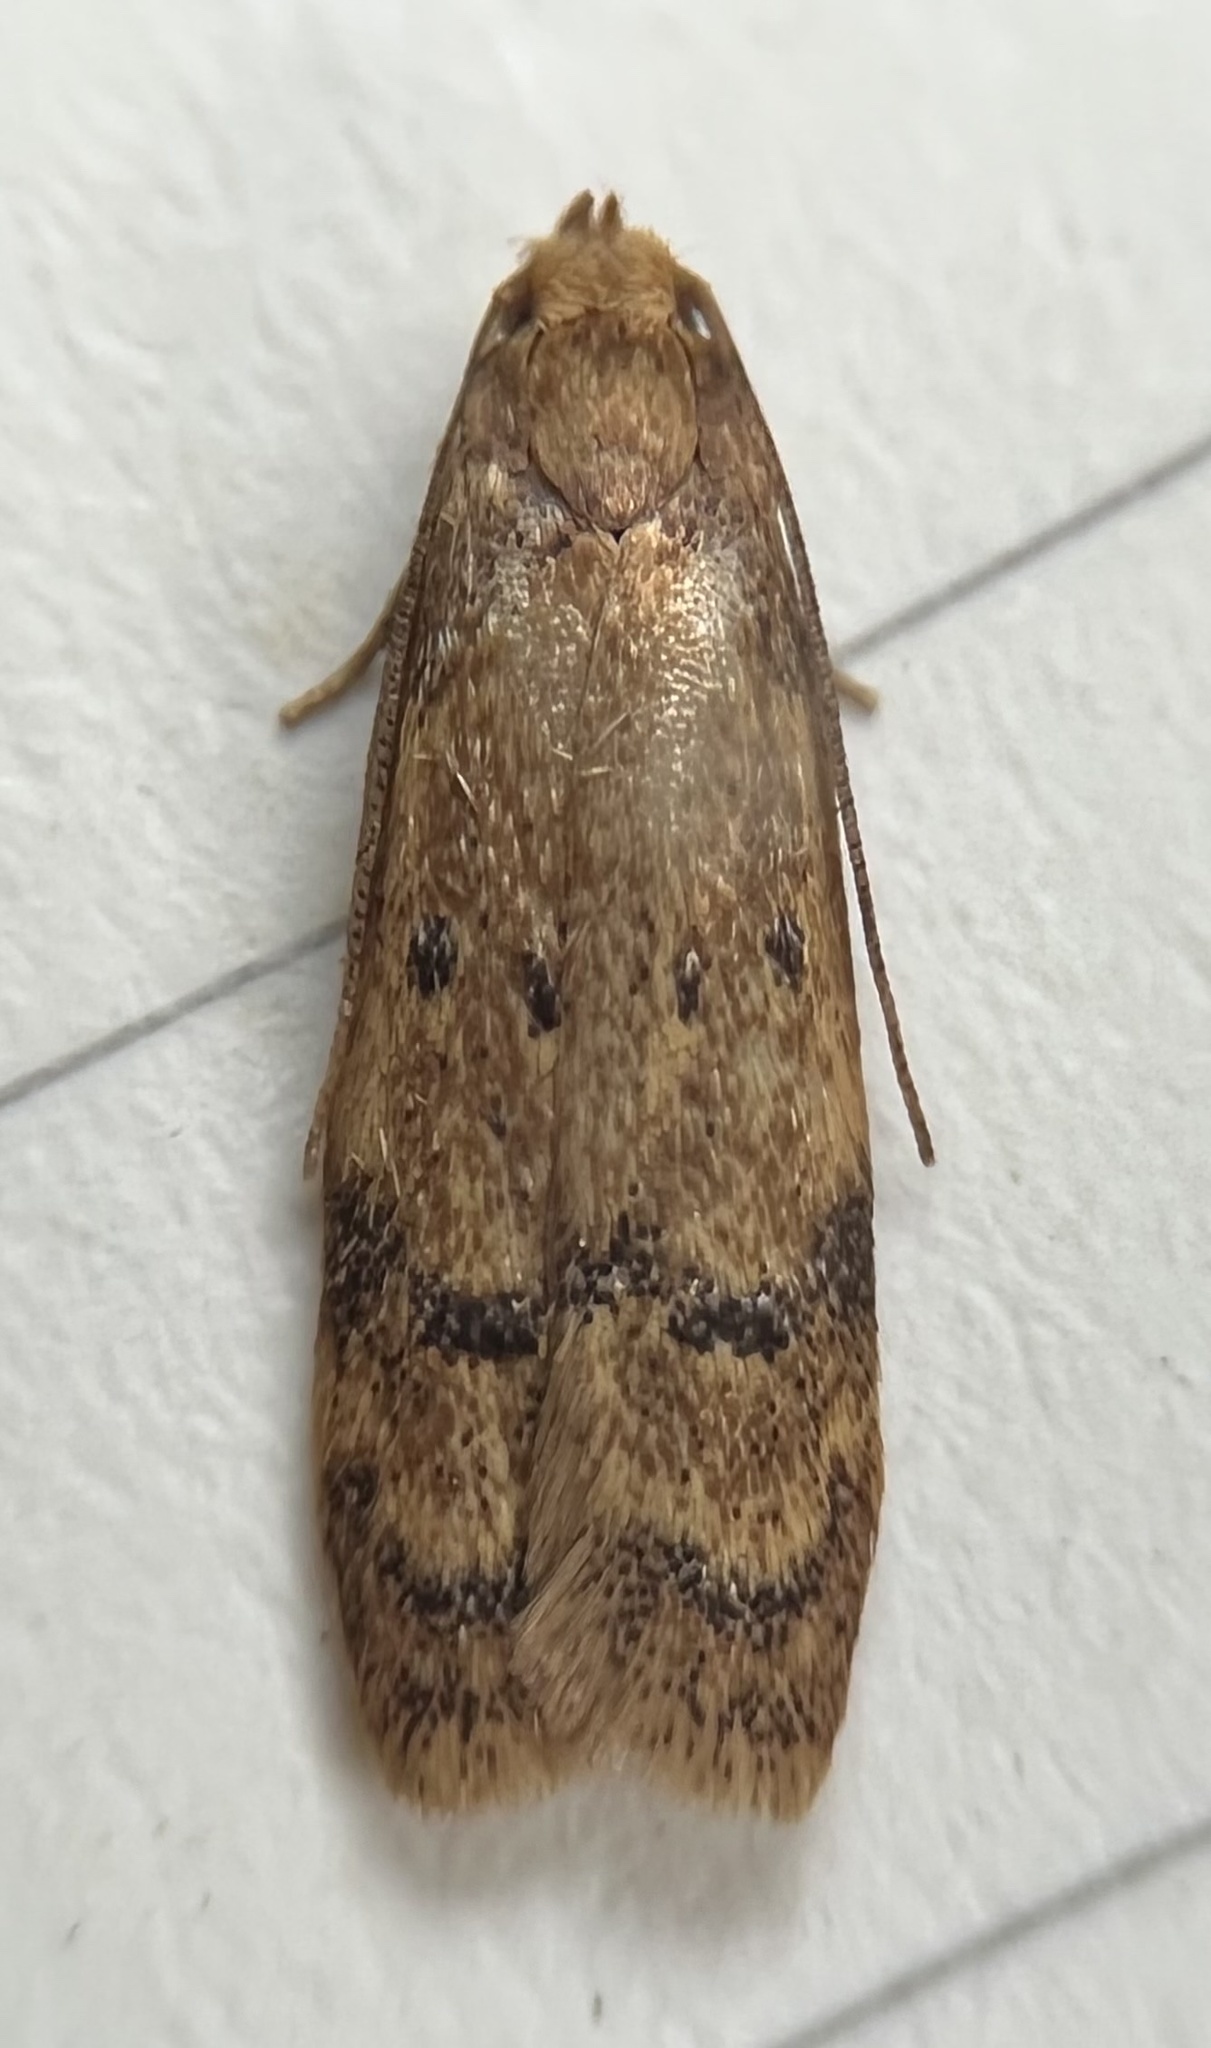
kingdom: Animalia
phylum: Arthropoda
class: Insecta
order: Lepidoptera
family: Autostichidae
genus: Gerdana
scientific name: Gerdana caritella
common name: Gerdana moth
